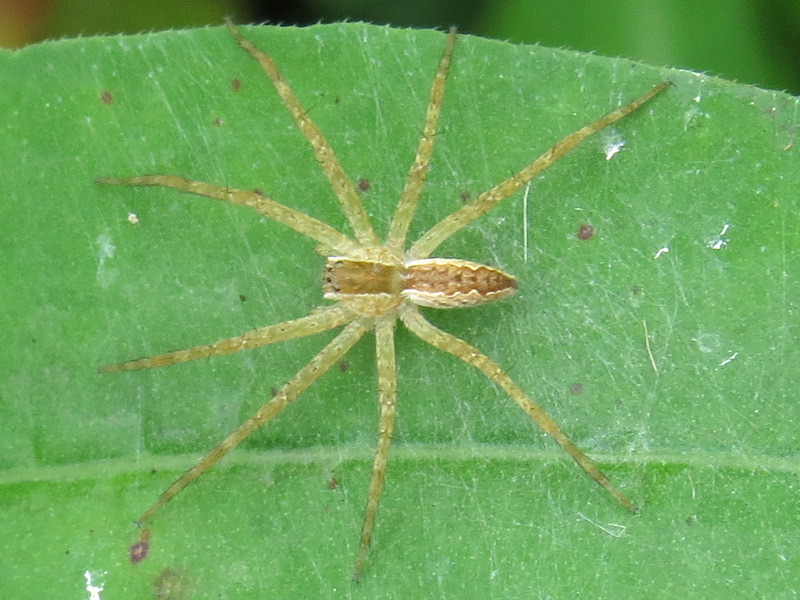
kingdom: Animalia
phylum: Arthropoda
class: Arachnida
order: Araneae
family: Pisauridae
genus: Pisaurina
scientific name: Pisaurina mira
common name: American nursery web spider
